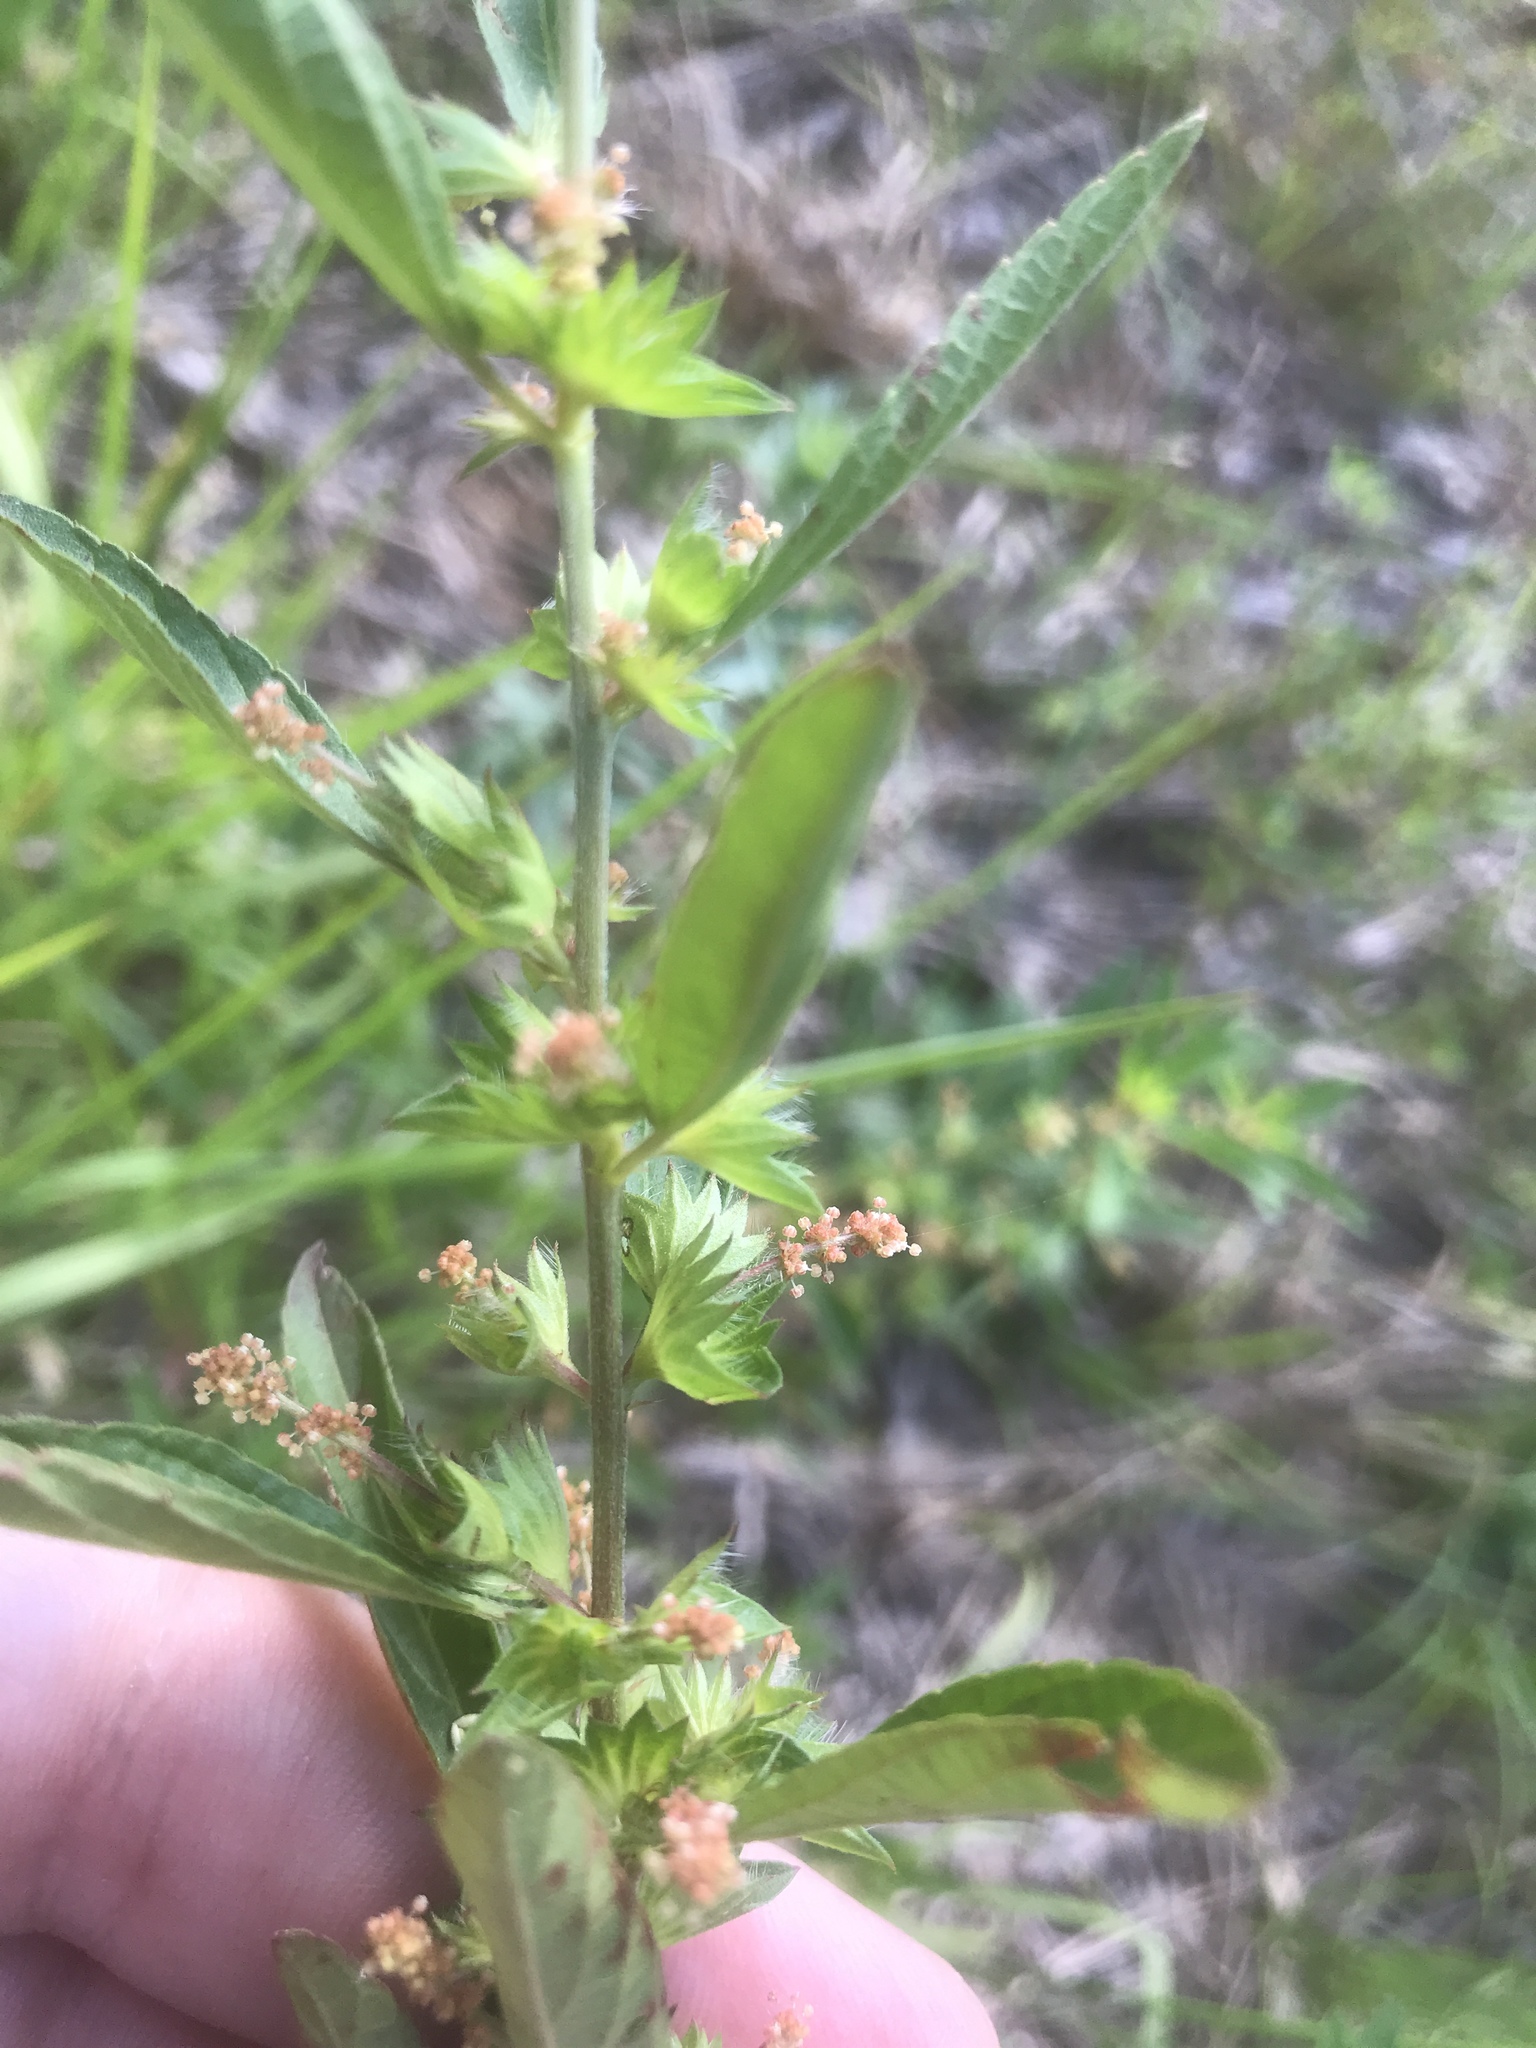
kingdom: Plantae
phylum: Tracheophyta
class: Magnoliopsida
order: Malpighiales
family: Euphorbiaceae
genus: Acalypha
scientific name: Acalypha gracilens
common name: Slender three-seeded mercury
